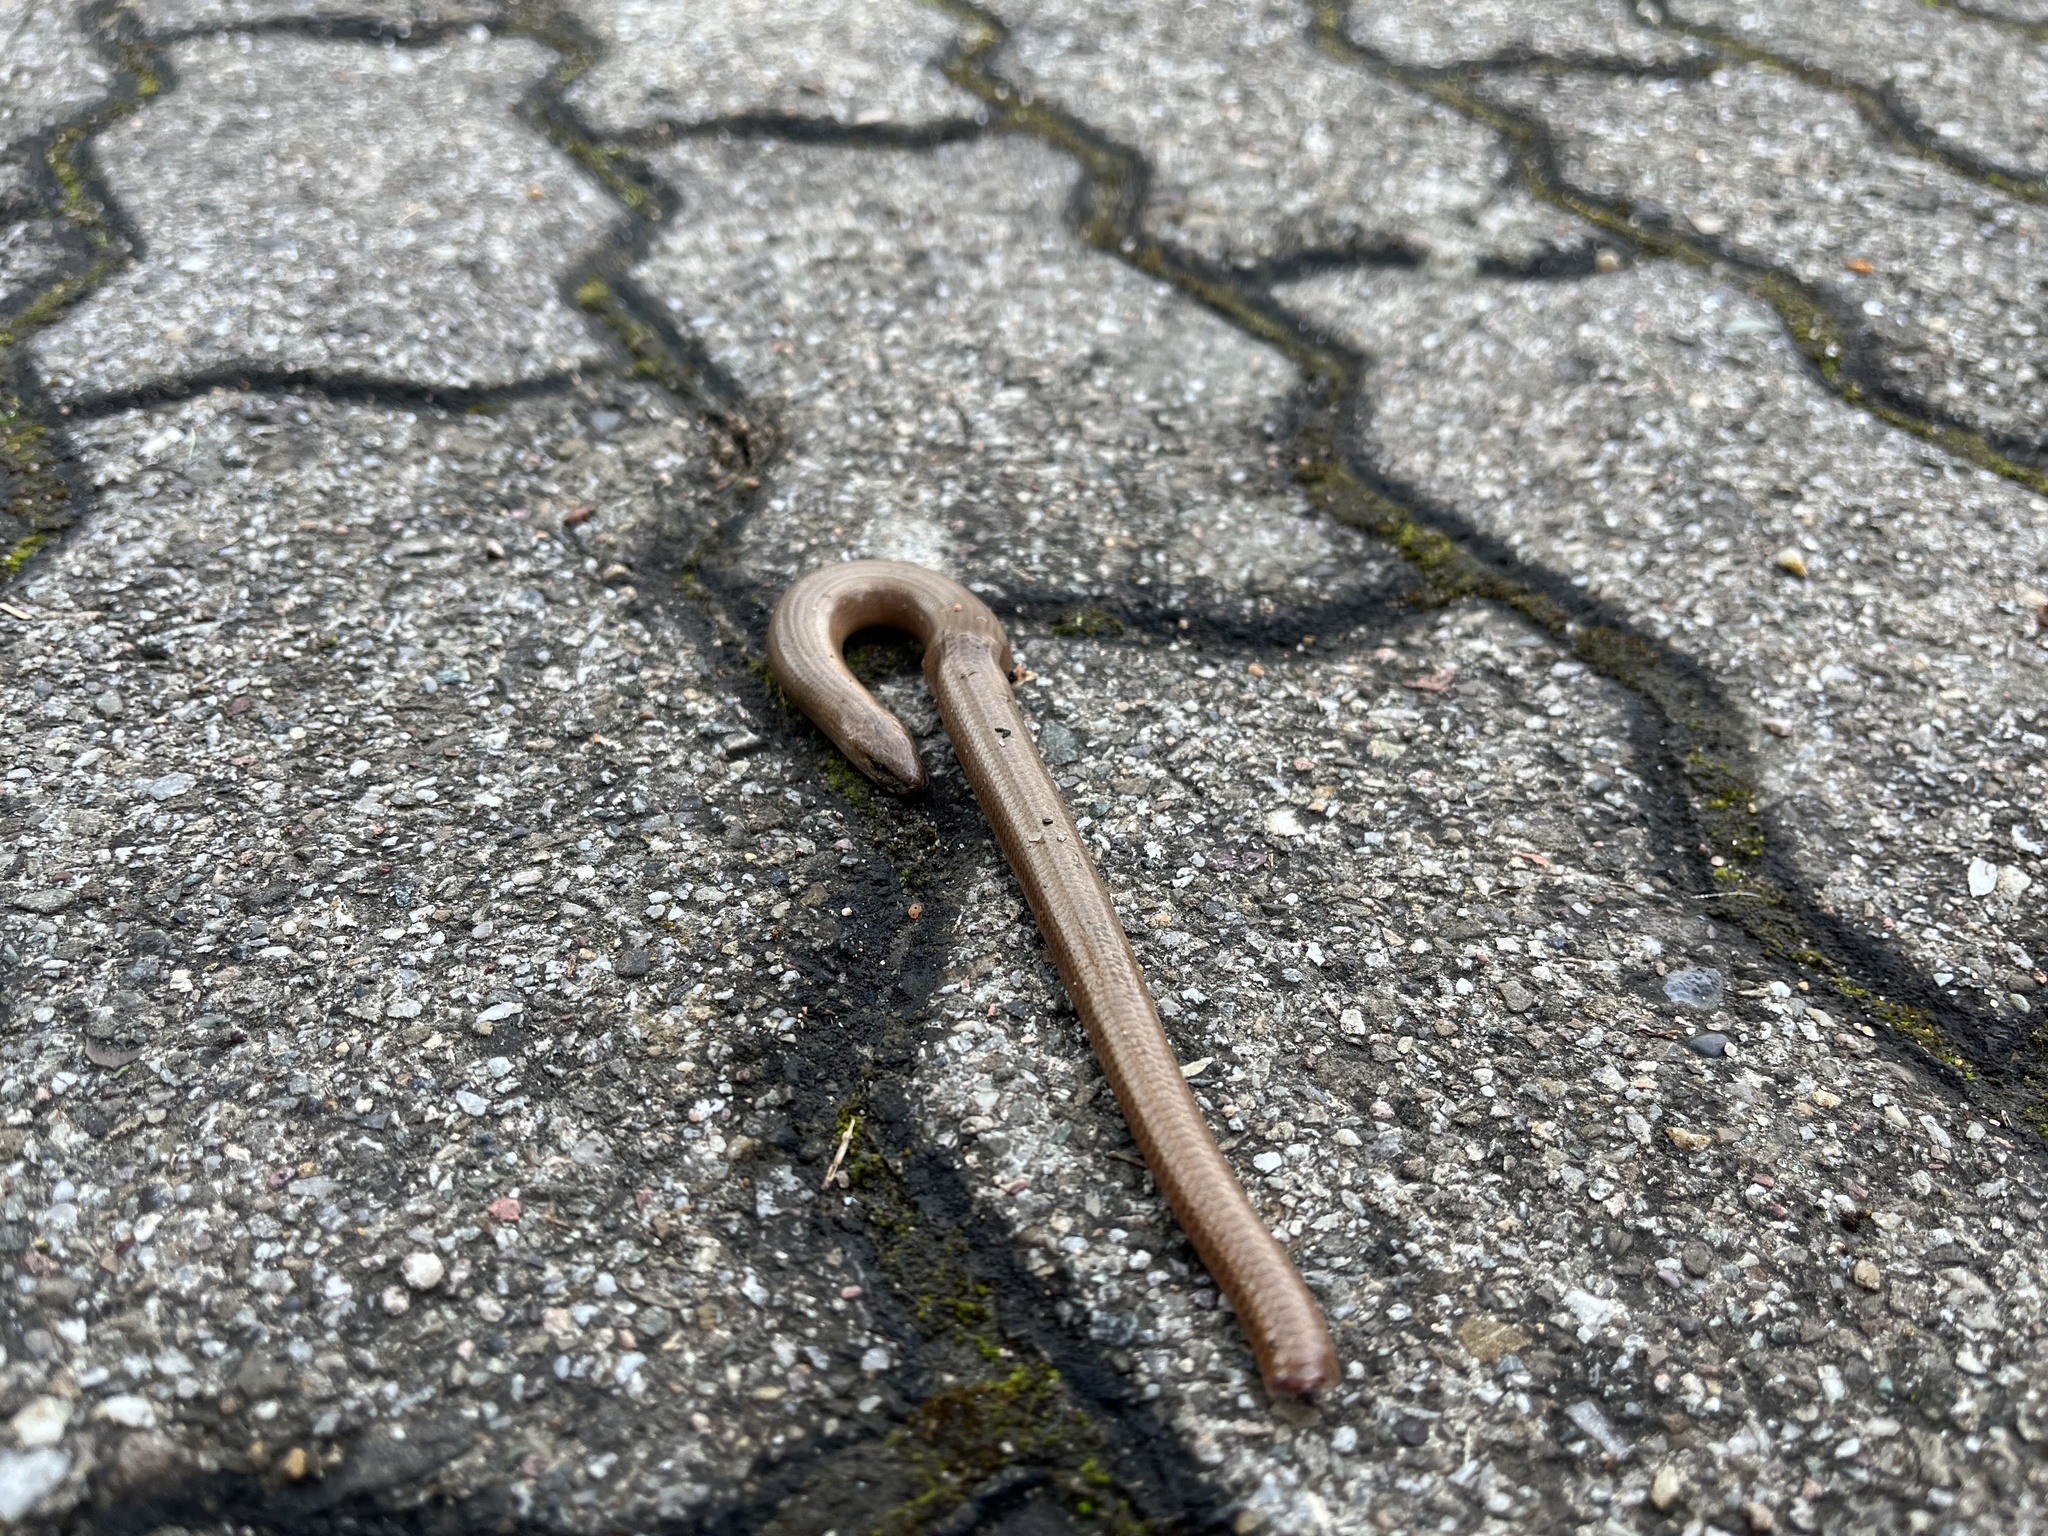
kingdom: Animalia
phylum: Chordata
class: Squamata
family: Anguidae
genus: Anguis
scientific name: Anguis fragilis
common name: Slow worm
